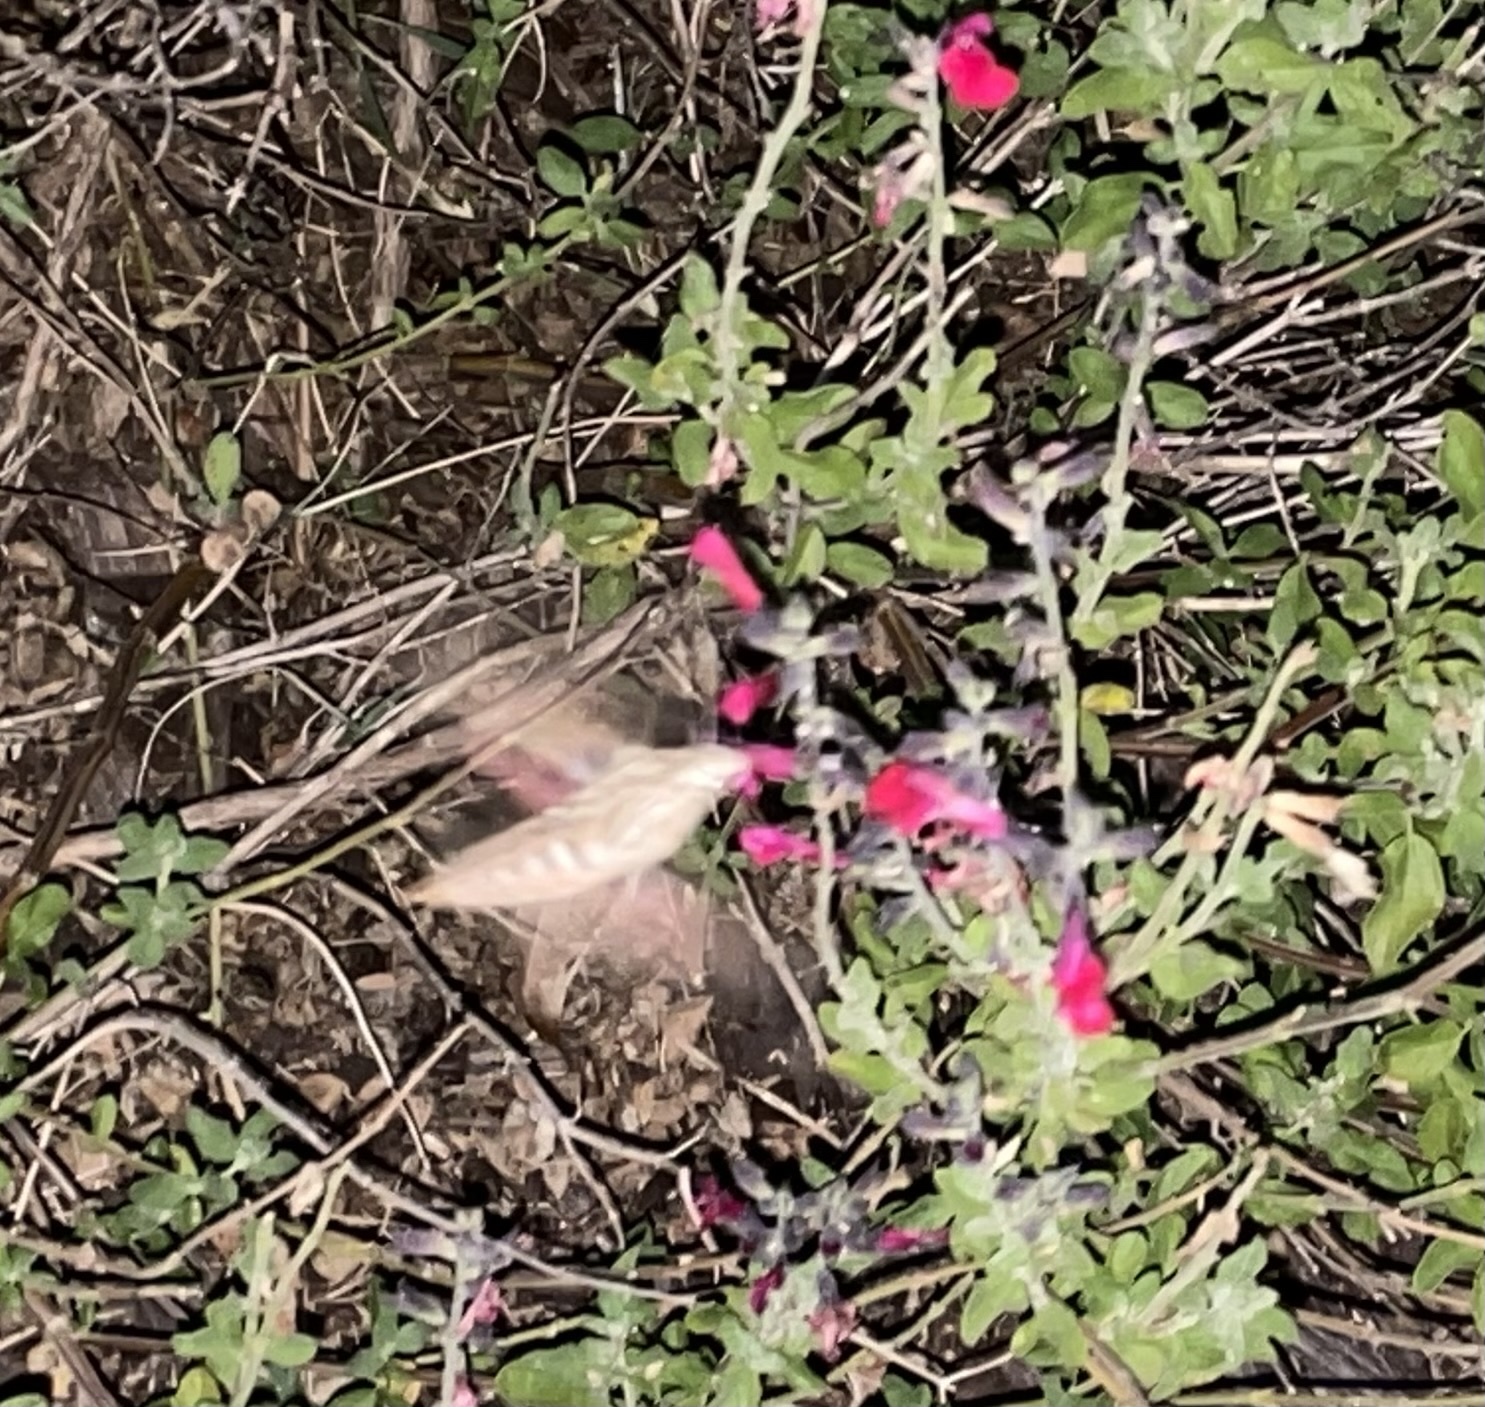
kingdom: Animalia
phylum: Arthropoda
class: Insecta
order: Lepidoptera
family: Sphingidae
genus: Hyles
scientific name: Hyles lineata
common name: White-lined sphinx
